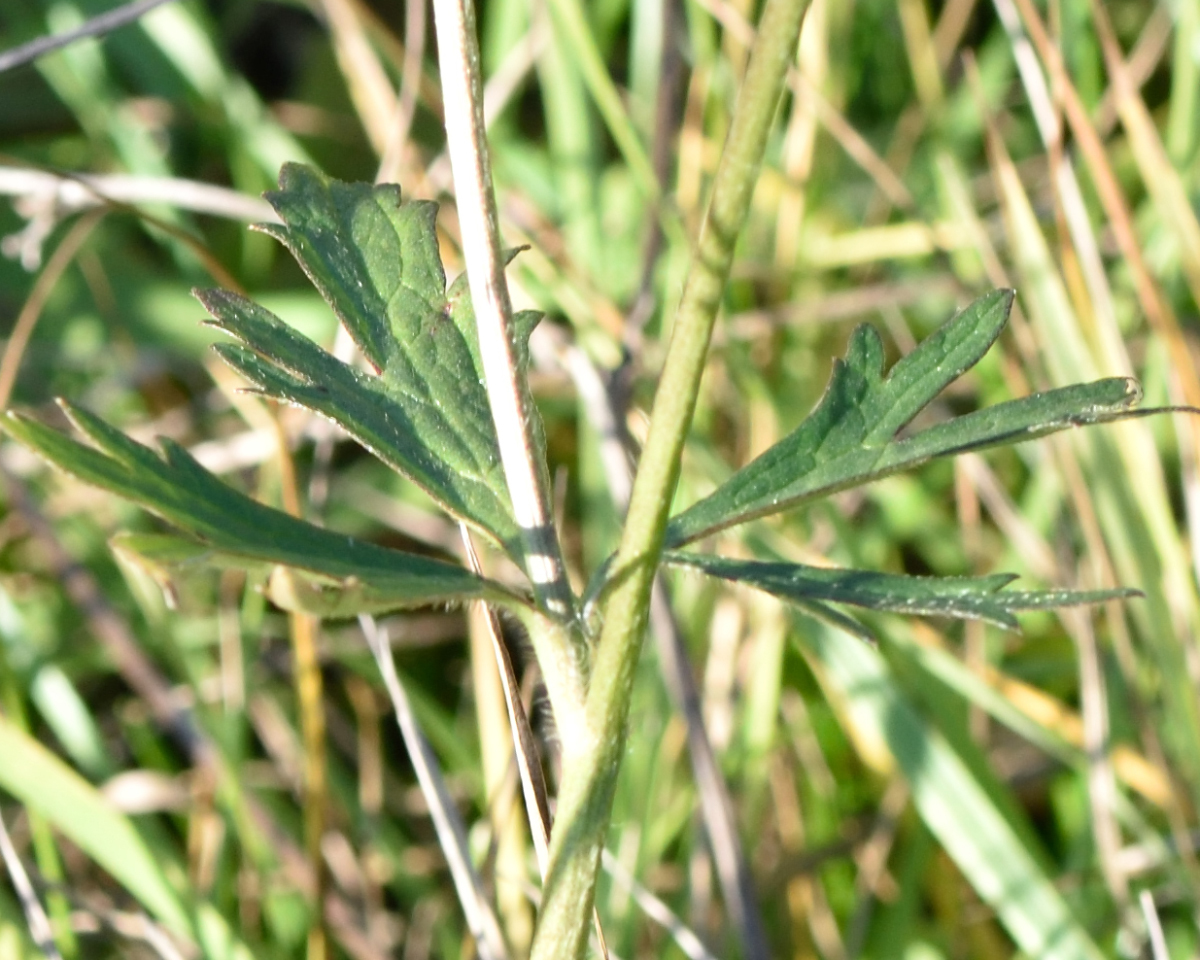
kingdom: Plantae
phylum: Tracheophyta
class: Magnoliopsida
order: Ranunculales
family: Ranunculaceae
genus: Ranunculus
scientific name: Ranunculus polyanthemos
